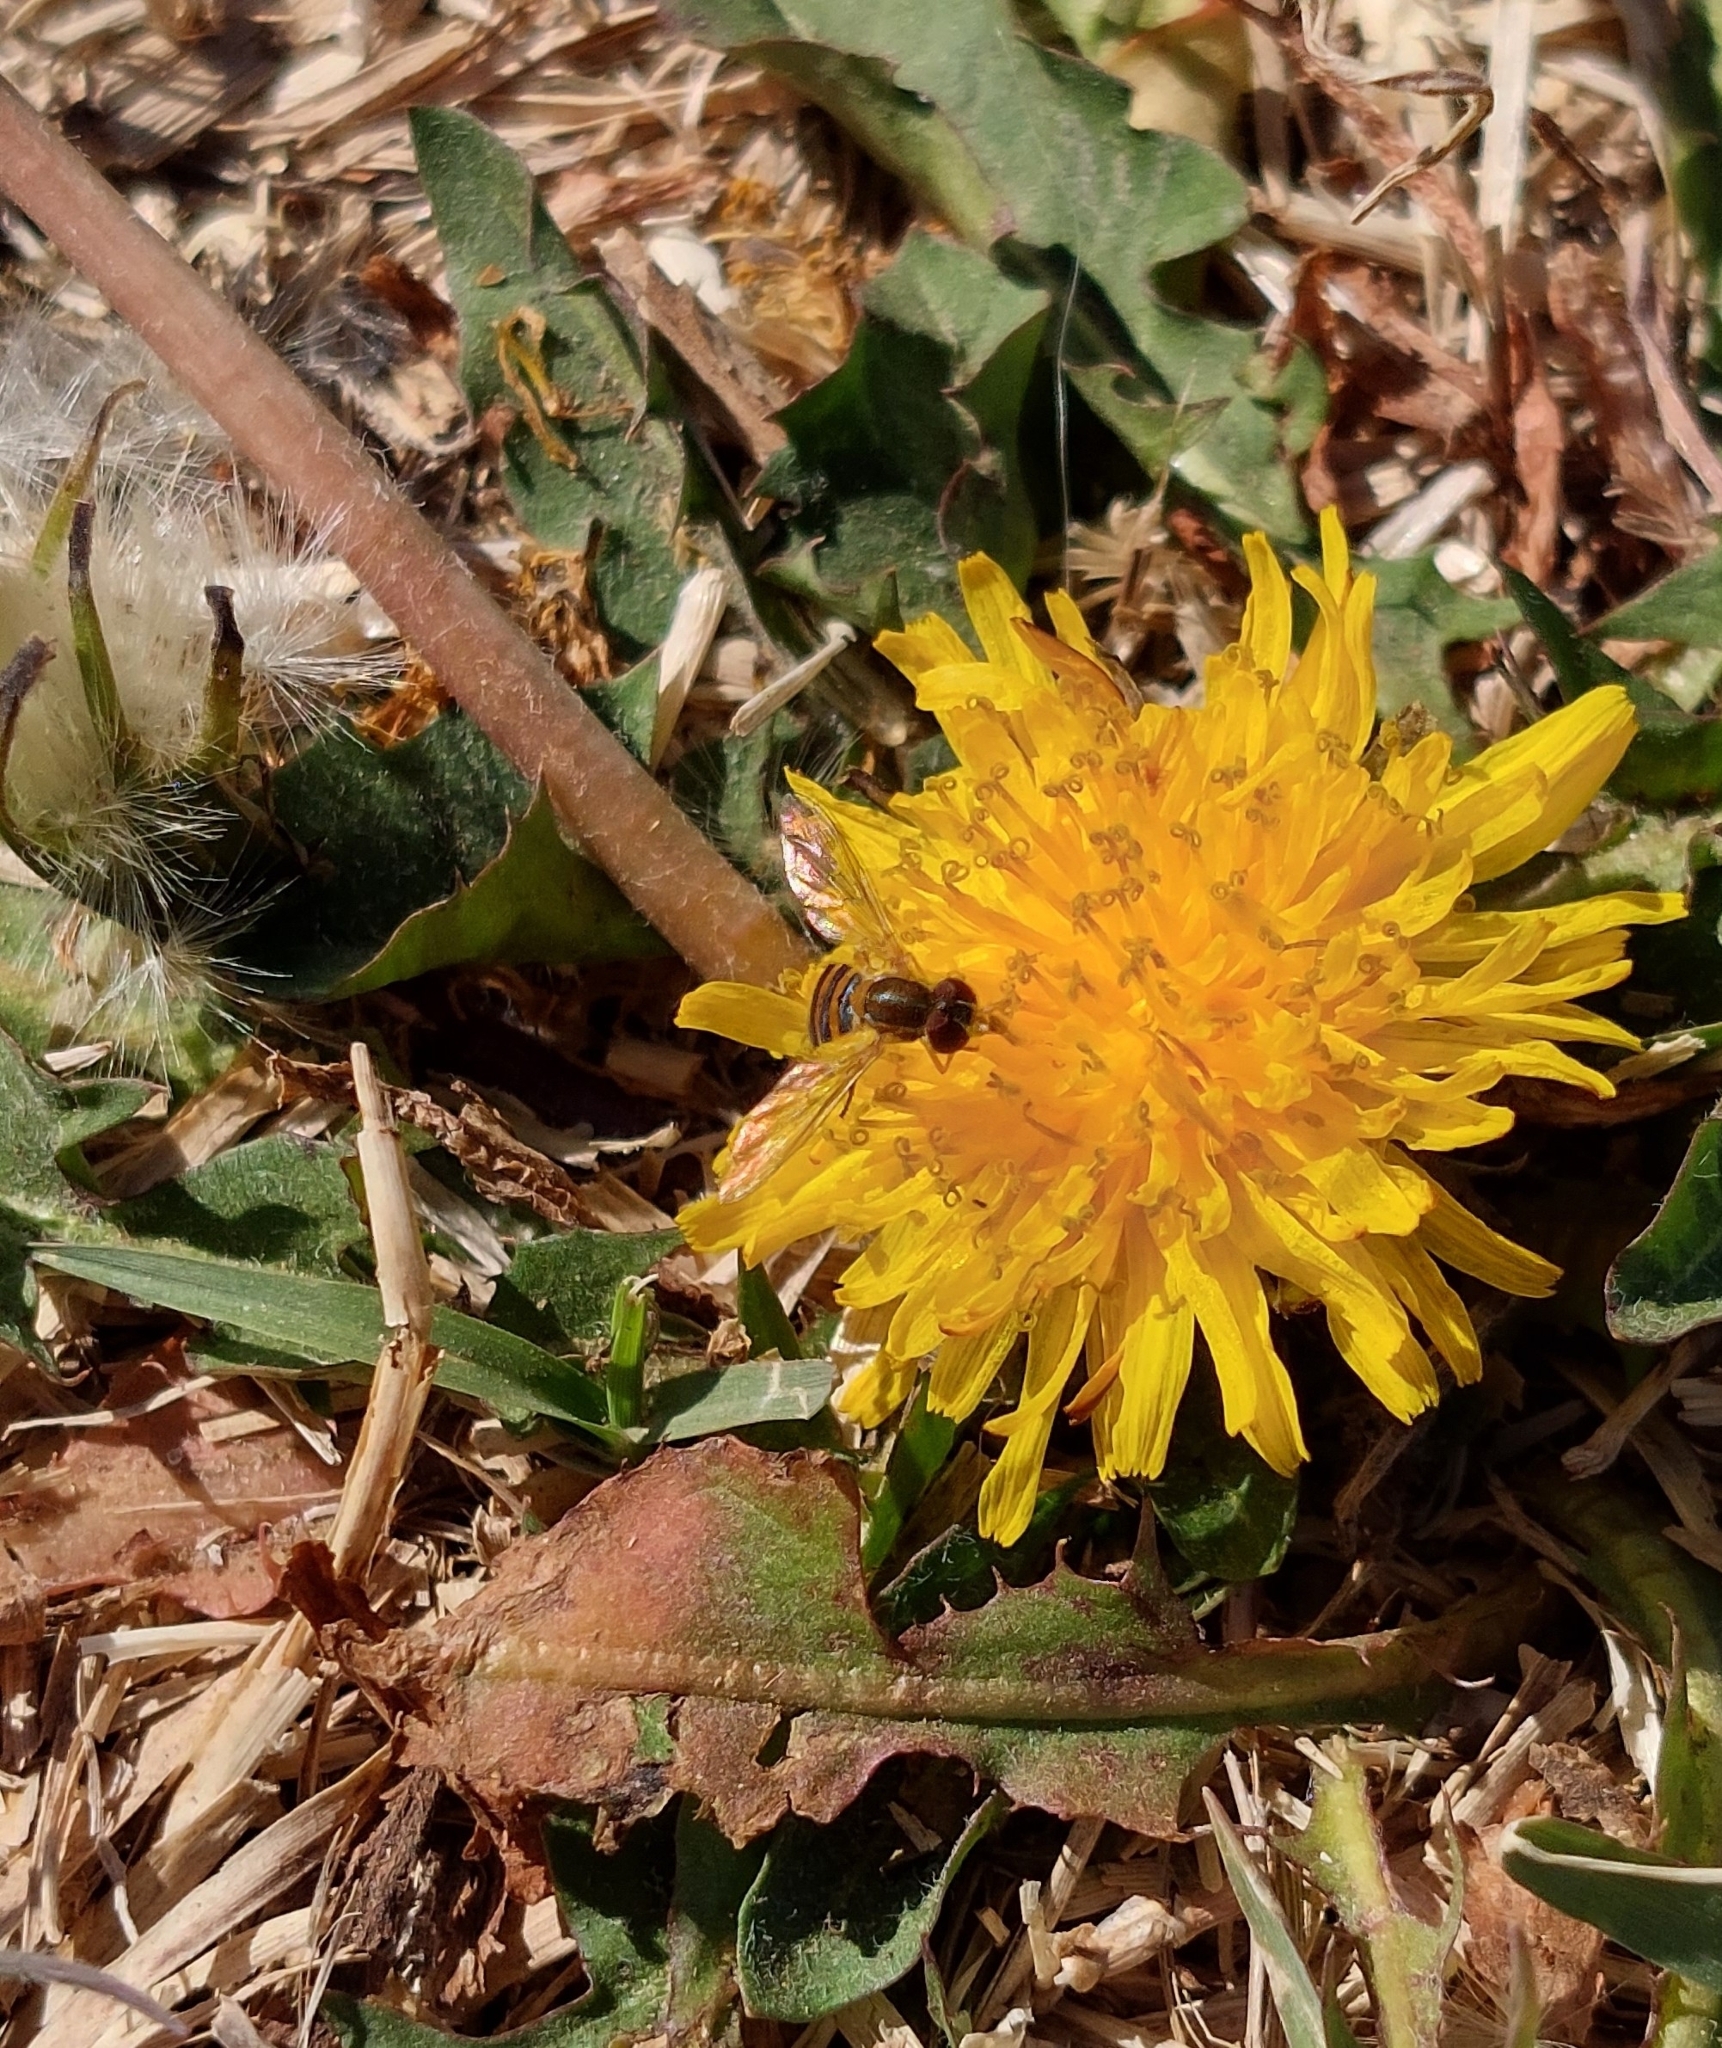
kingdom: Animalia
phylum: Arthropoda
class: Insecta
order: Diptera
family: Syrphidae
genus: Toxomerus
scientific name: Toxomerus
